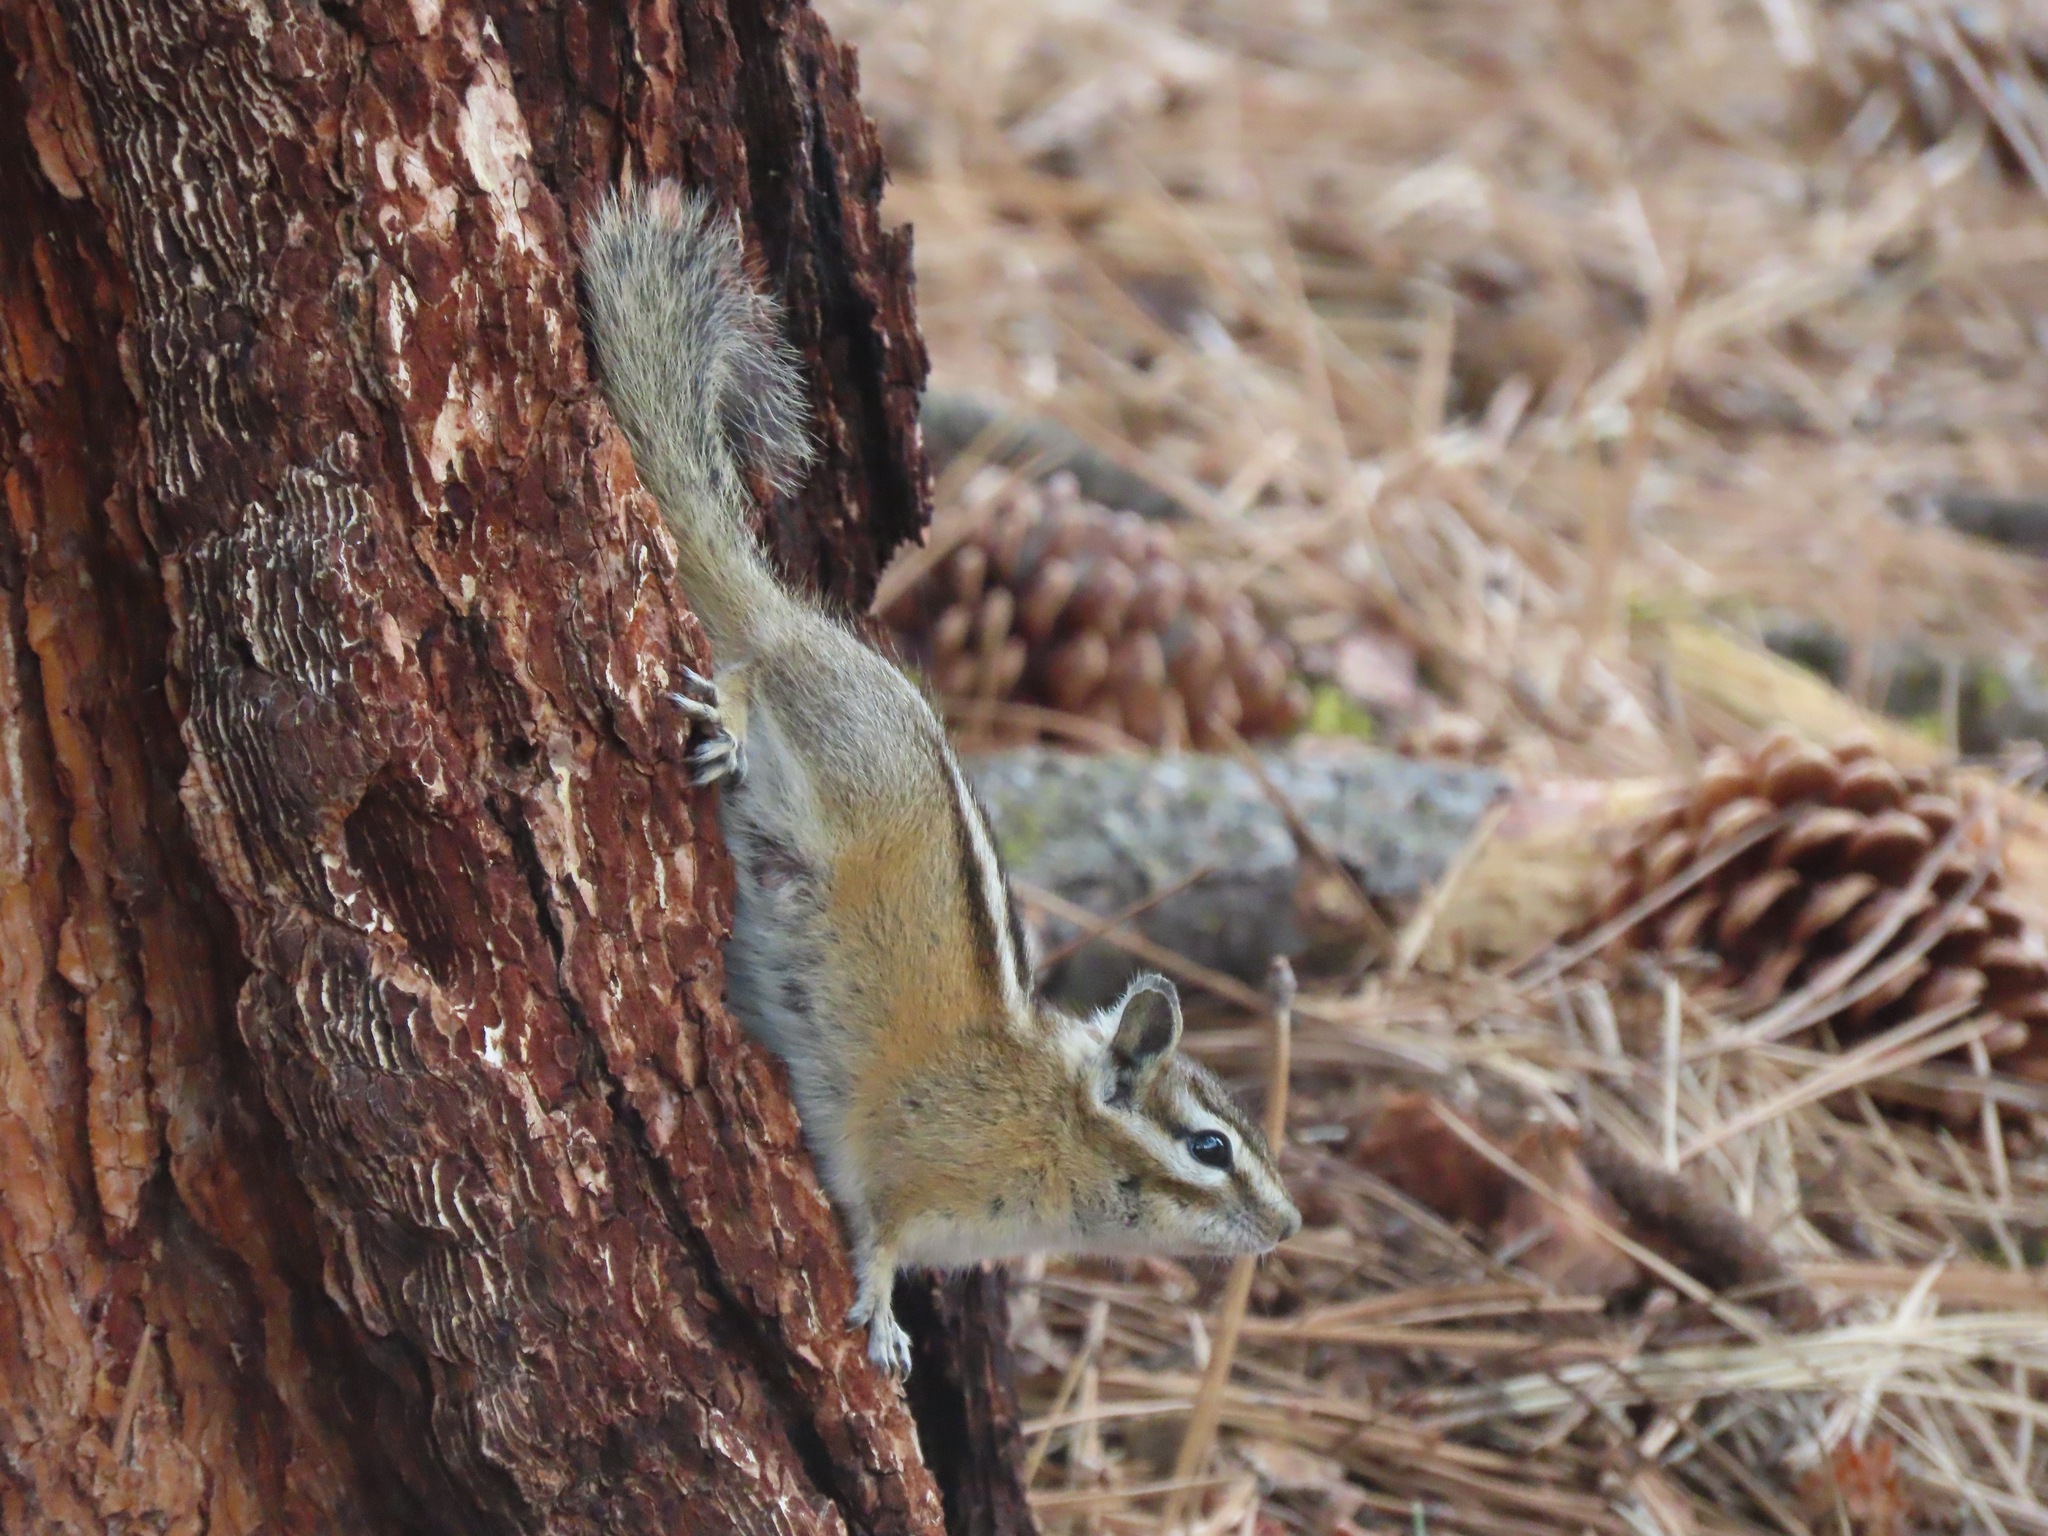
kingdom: Animalia
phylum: Chordata
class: Mammalia
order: Rodentia
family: Sciuridae
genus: Tamias
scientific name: Tamias amoenus
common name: Yellow-pine chipmunk
